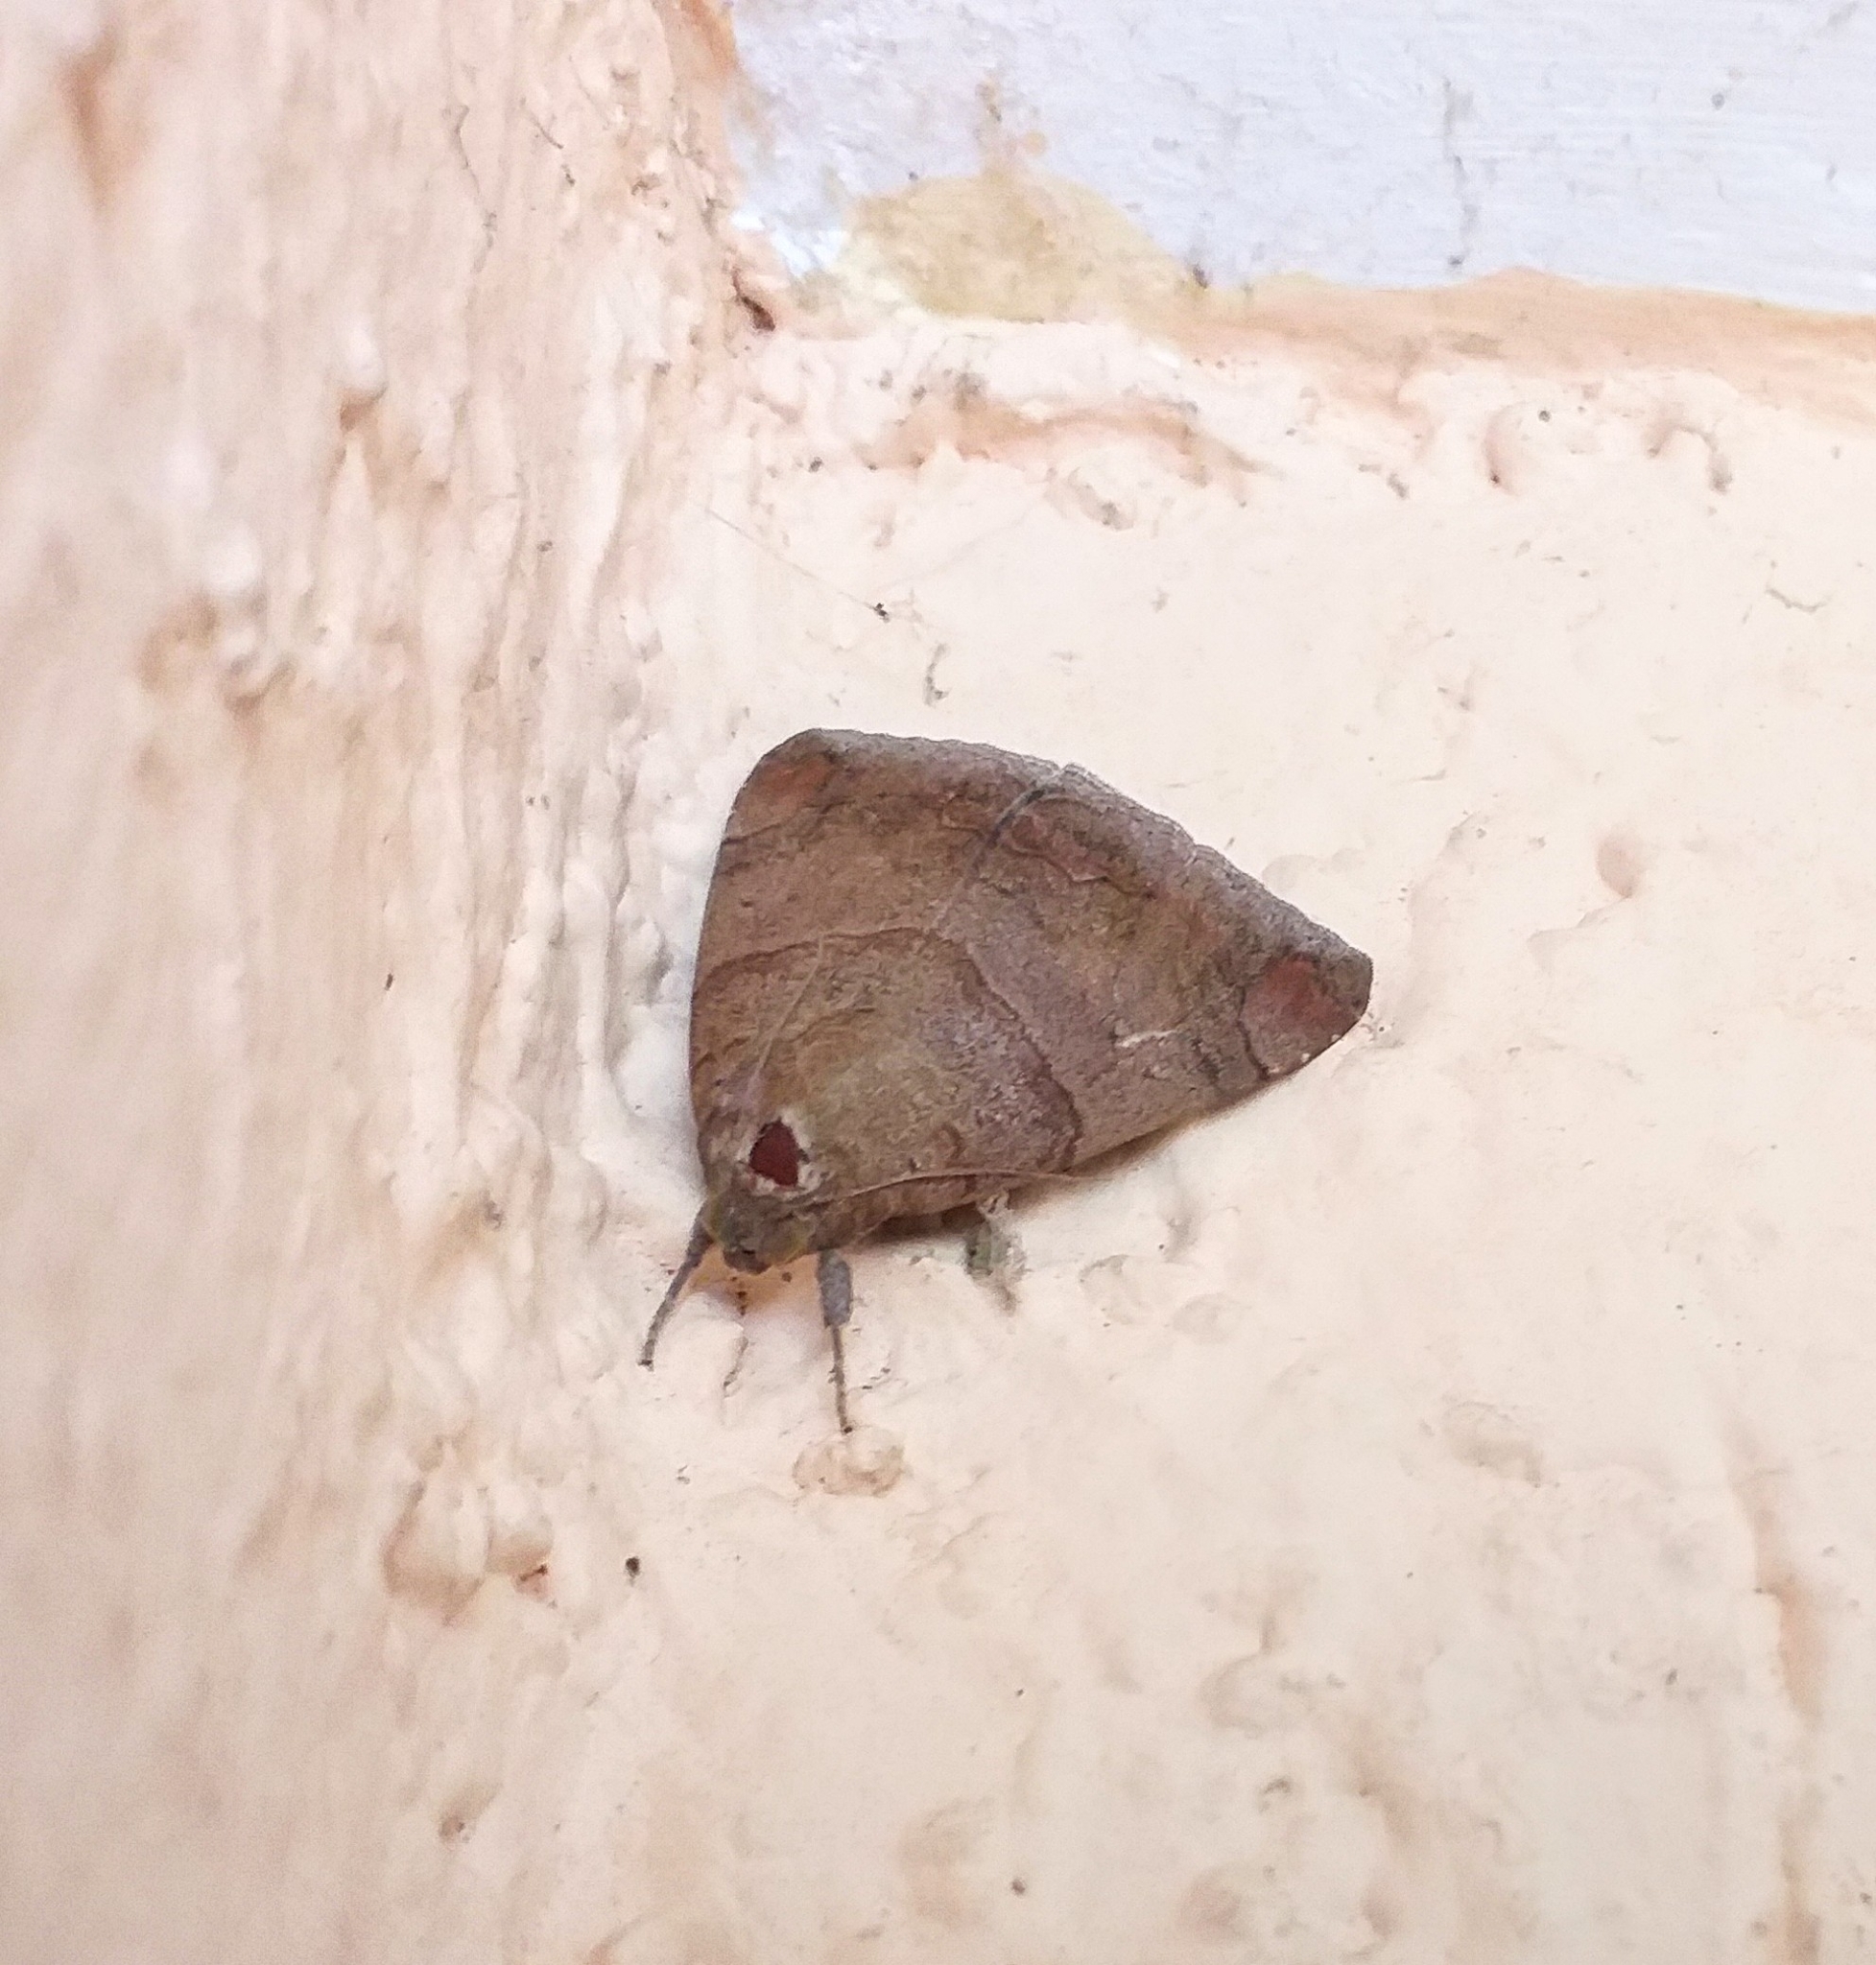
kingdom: Animalia
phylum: Arthropoda
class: Insecta
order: Lepidoptera
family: Erebidae
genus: Achaea
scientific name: Achaea janata
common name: Croton caterpillar
